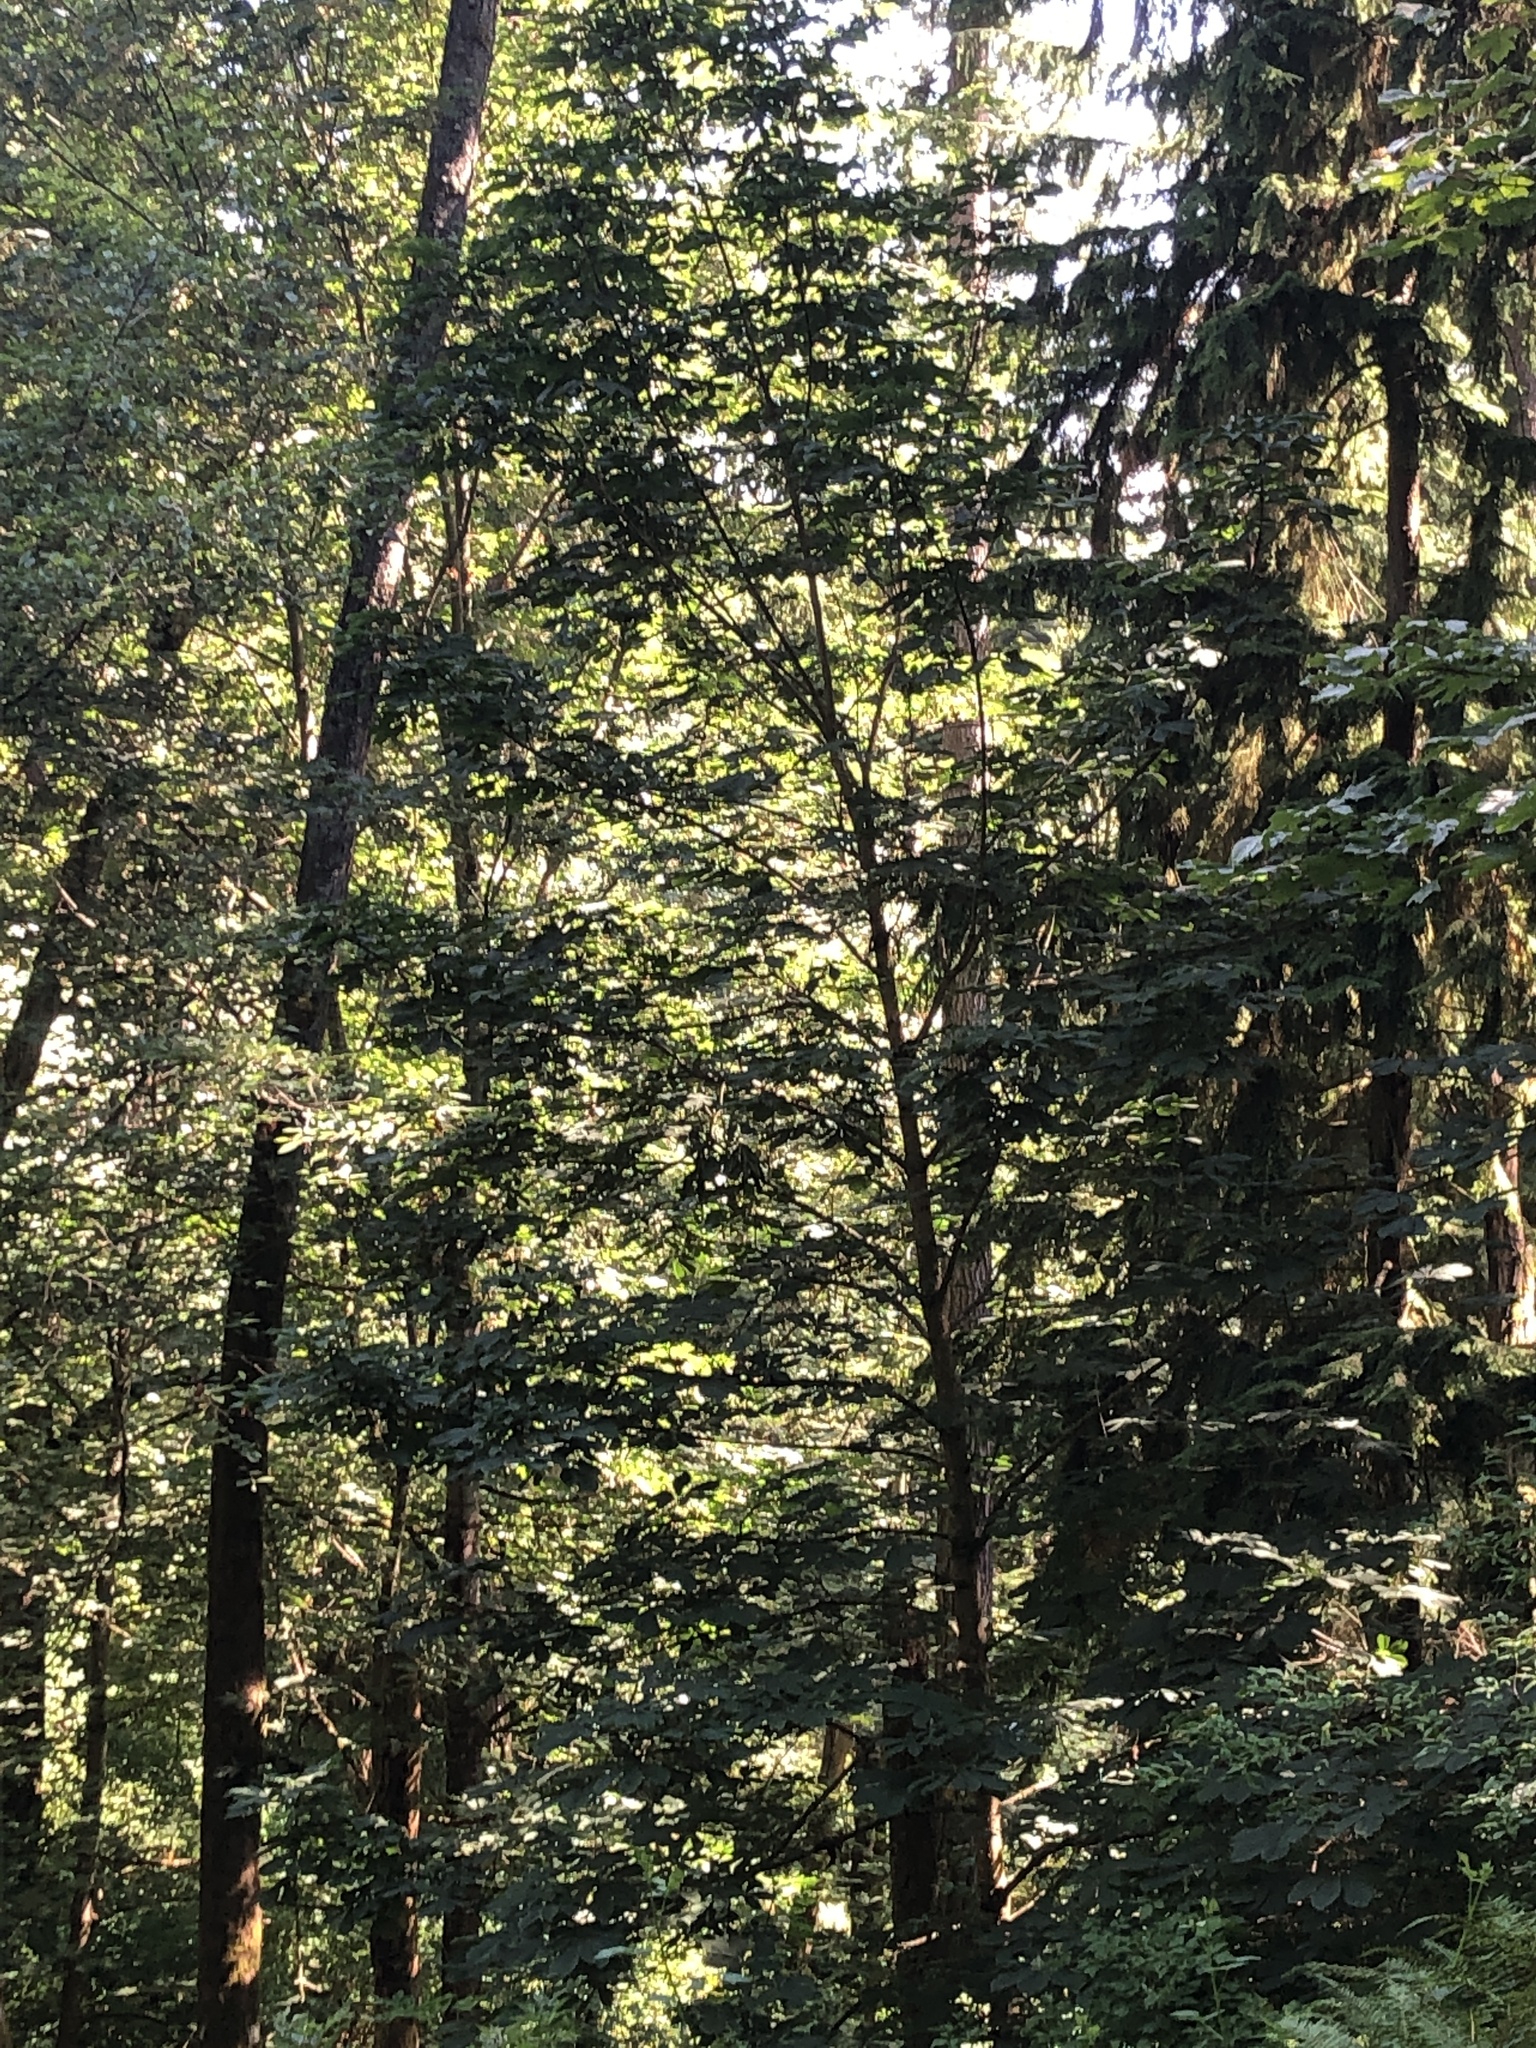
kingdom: Plantae
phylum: Tracheophyta
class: Magnoliopsida
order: Sapindales
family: Sapindaceae
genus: Aesculus
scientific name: Aesculus hippocastanum
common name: Horse-chestnut
